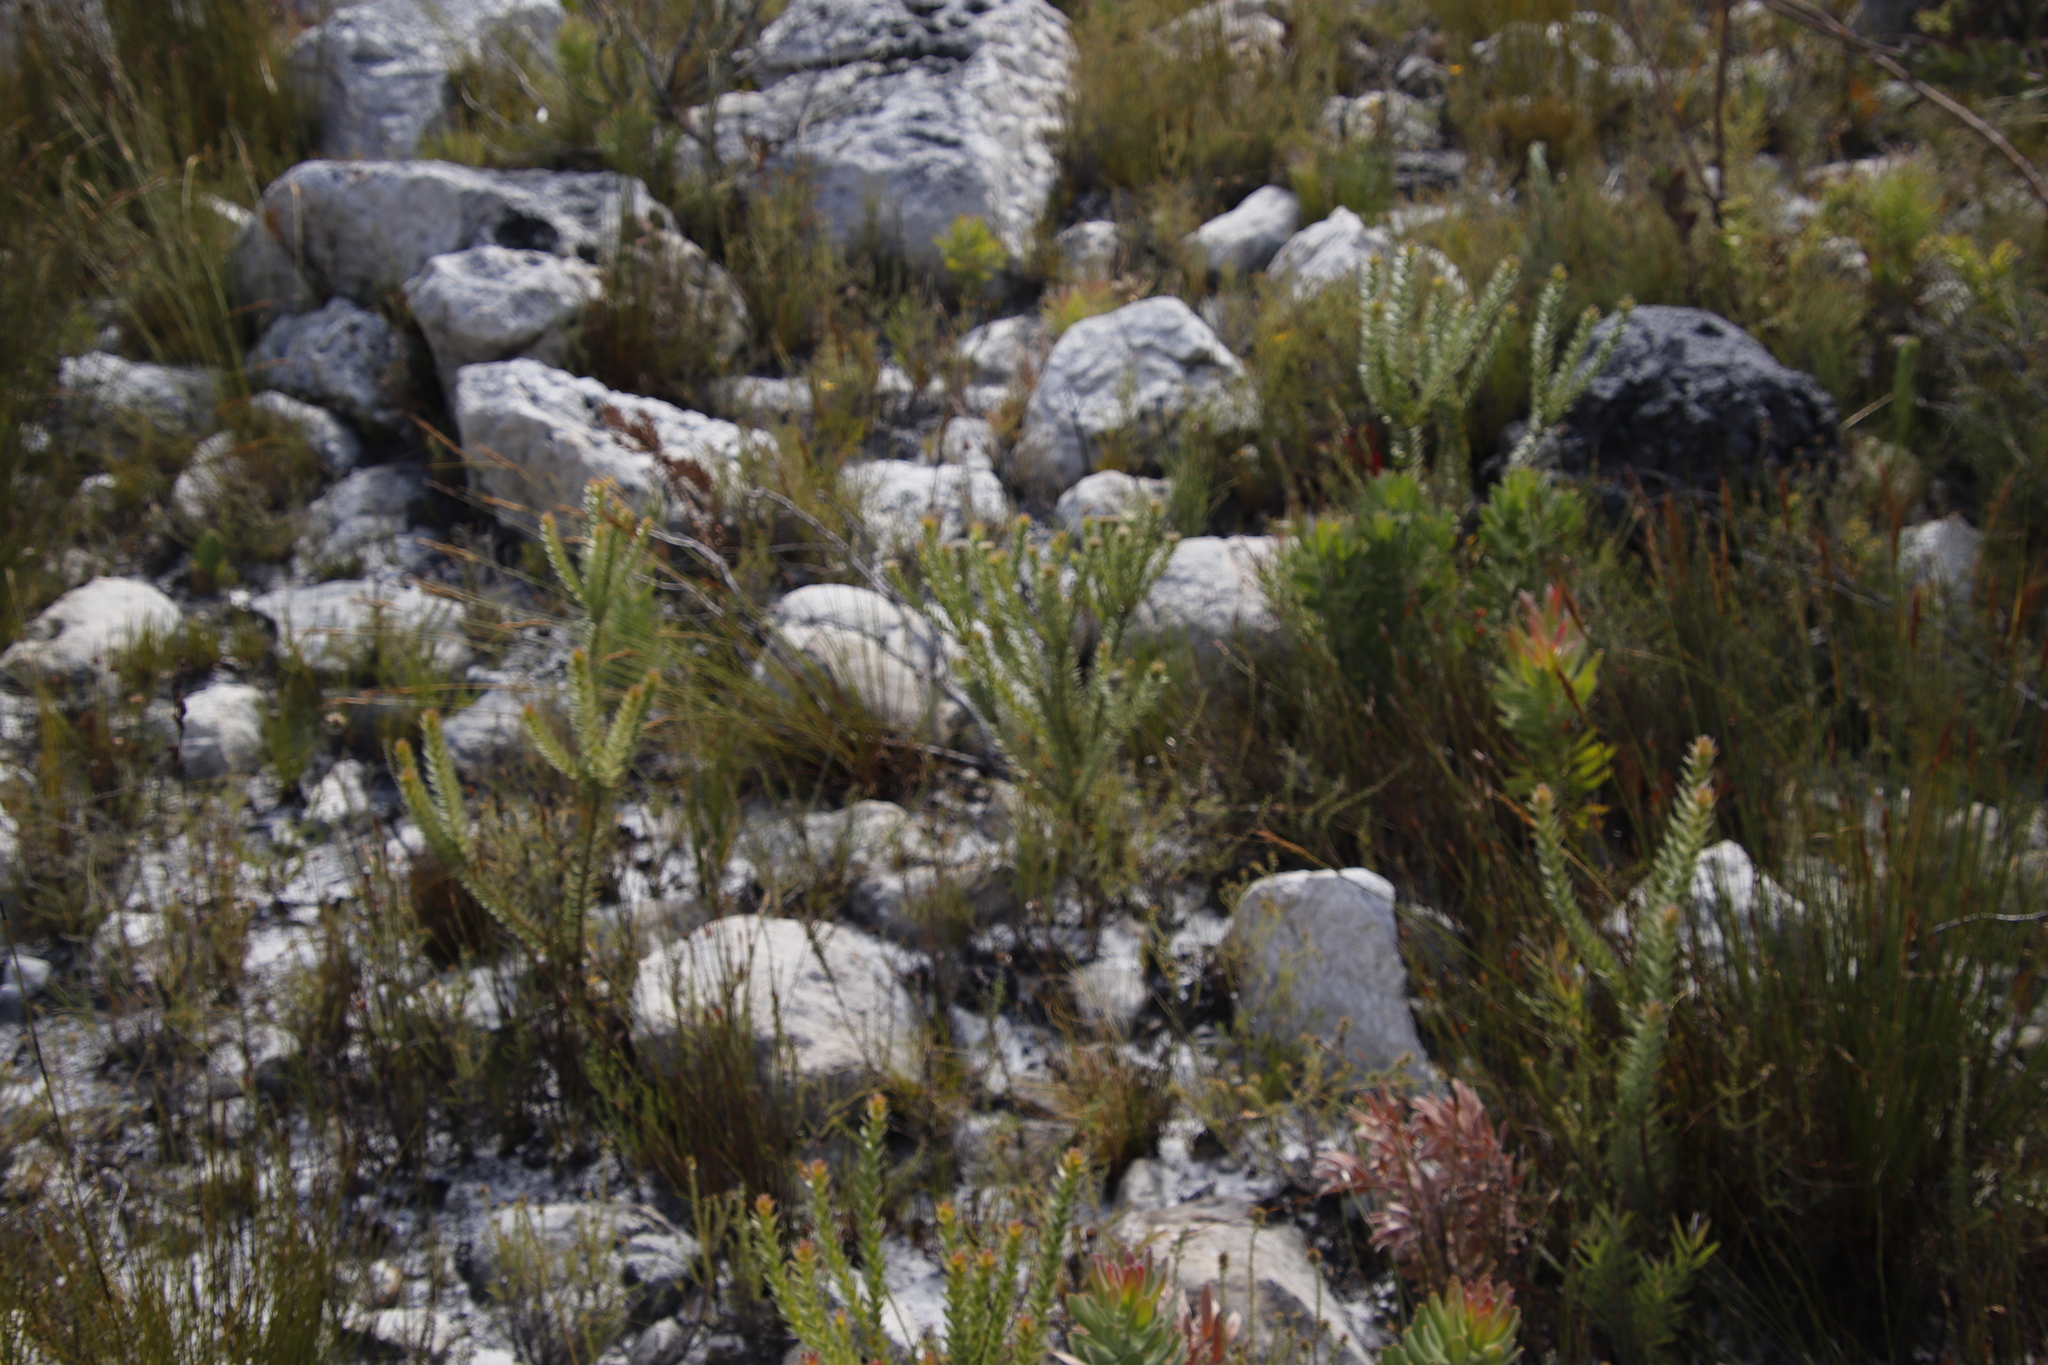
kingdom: Plantae
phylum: Tracheophyta
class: Magnoliopsida
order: Proteales
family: Proteaceae
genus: Diastella
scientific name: Diastella thymelaeoides
